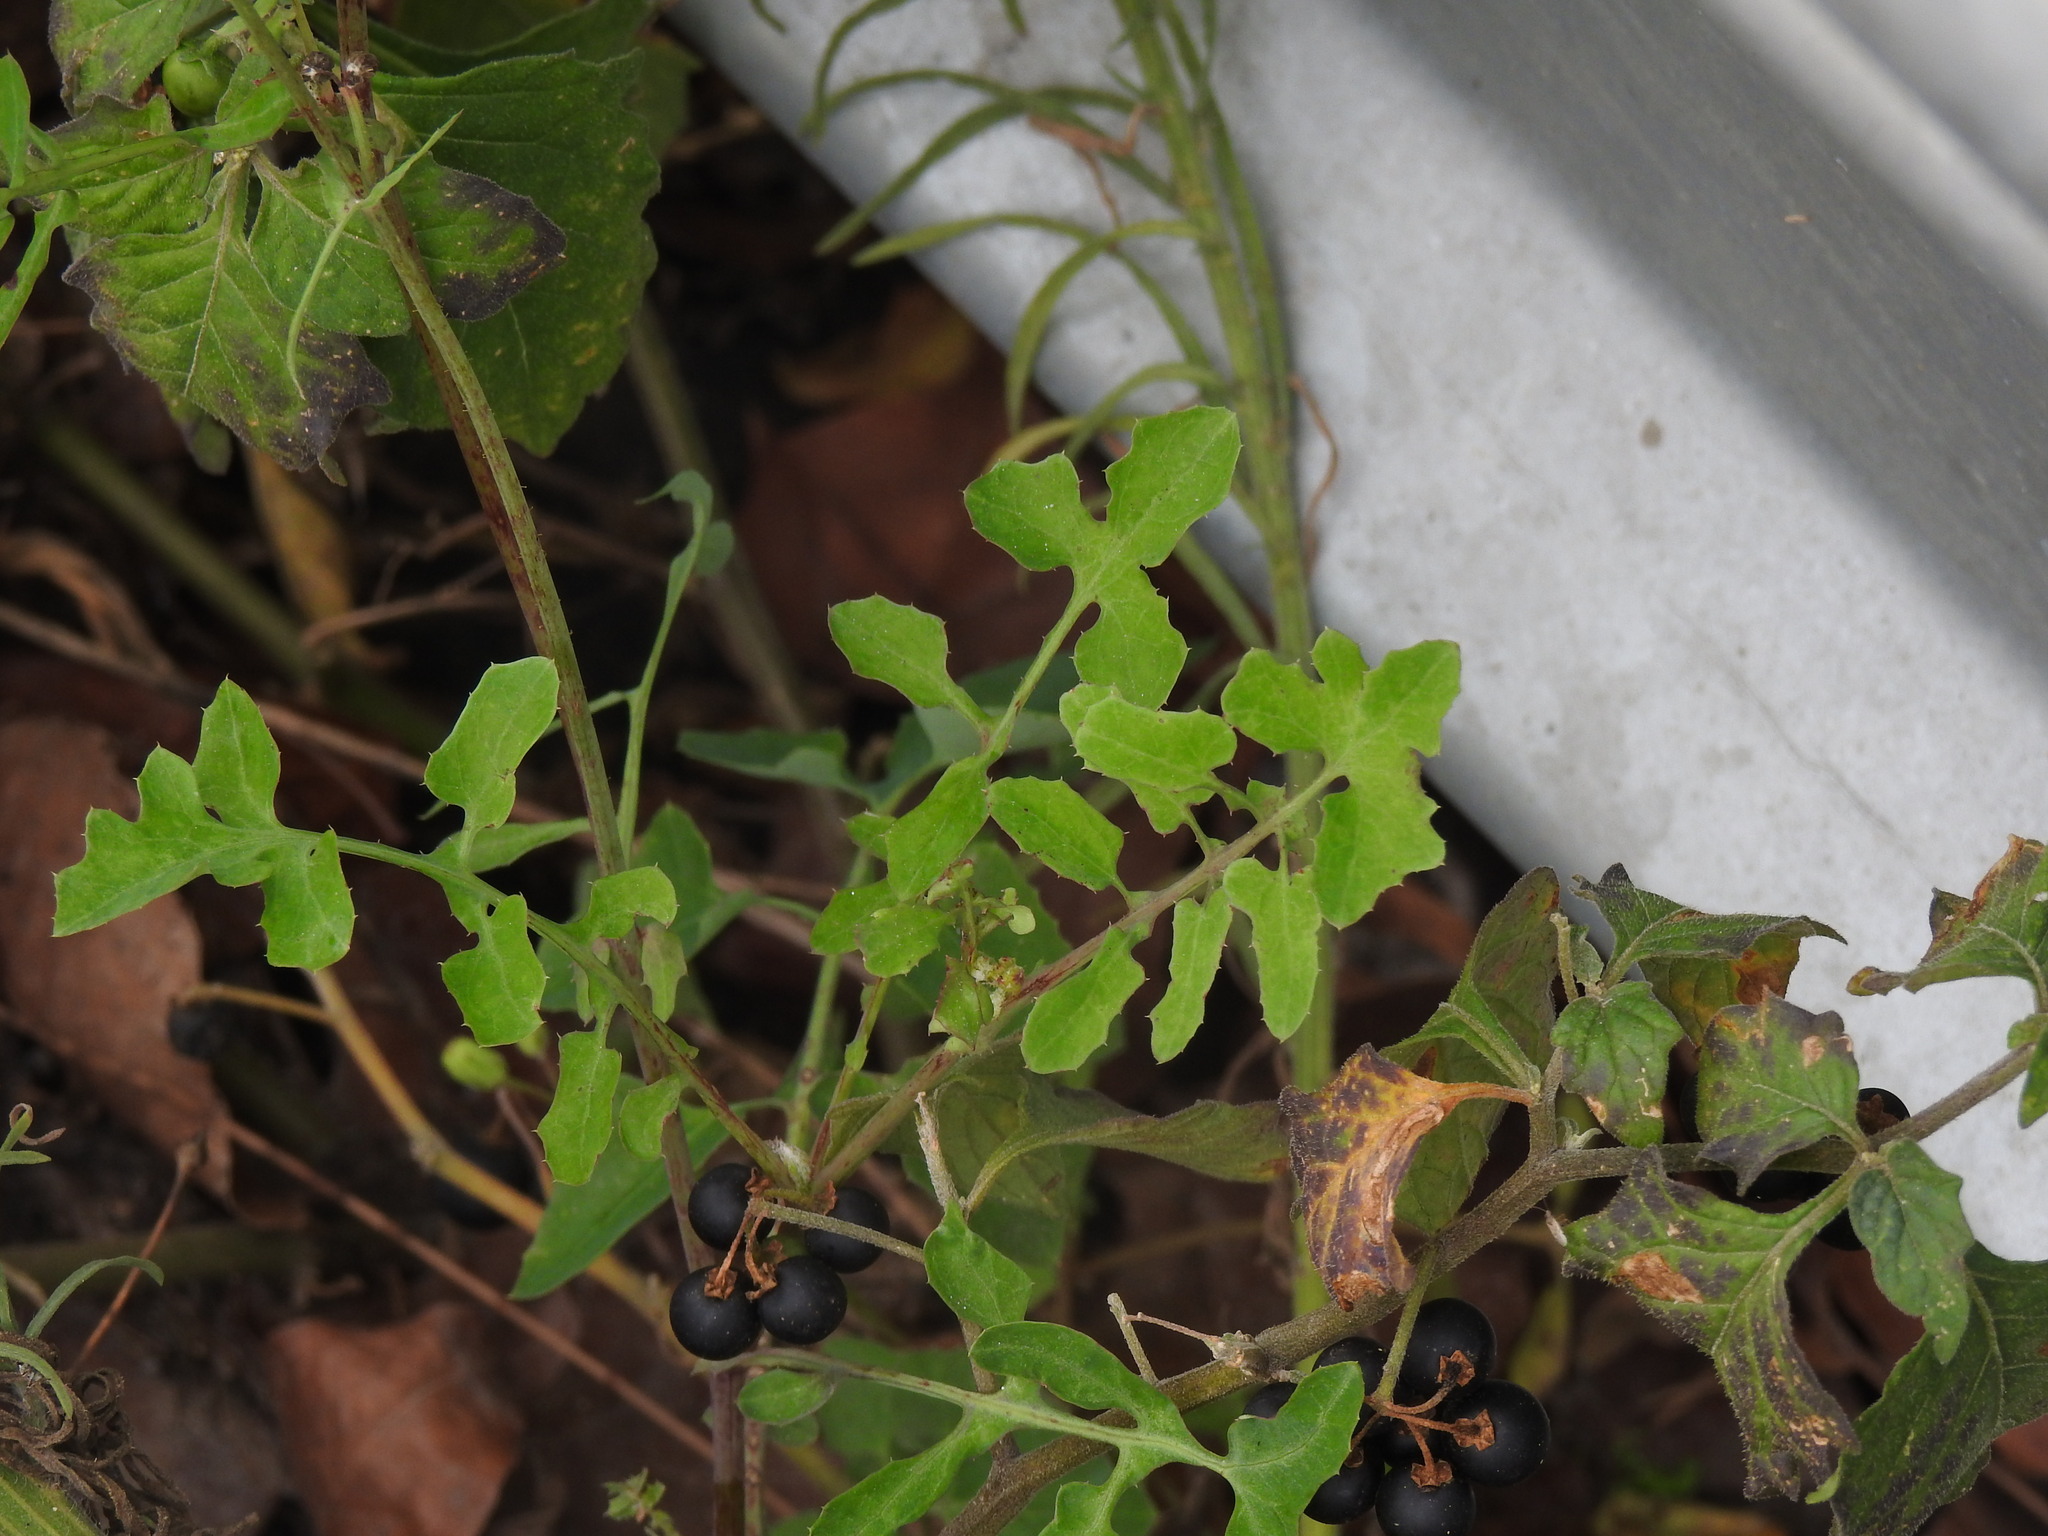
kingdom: Plantae
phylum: Tracheophyta
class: Magnoliopsida
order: Asterales
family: Asteraceae
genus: Sonchus
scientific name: Sonchus tenerrimus
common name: Clammy sowthistle
